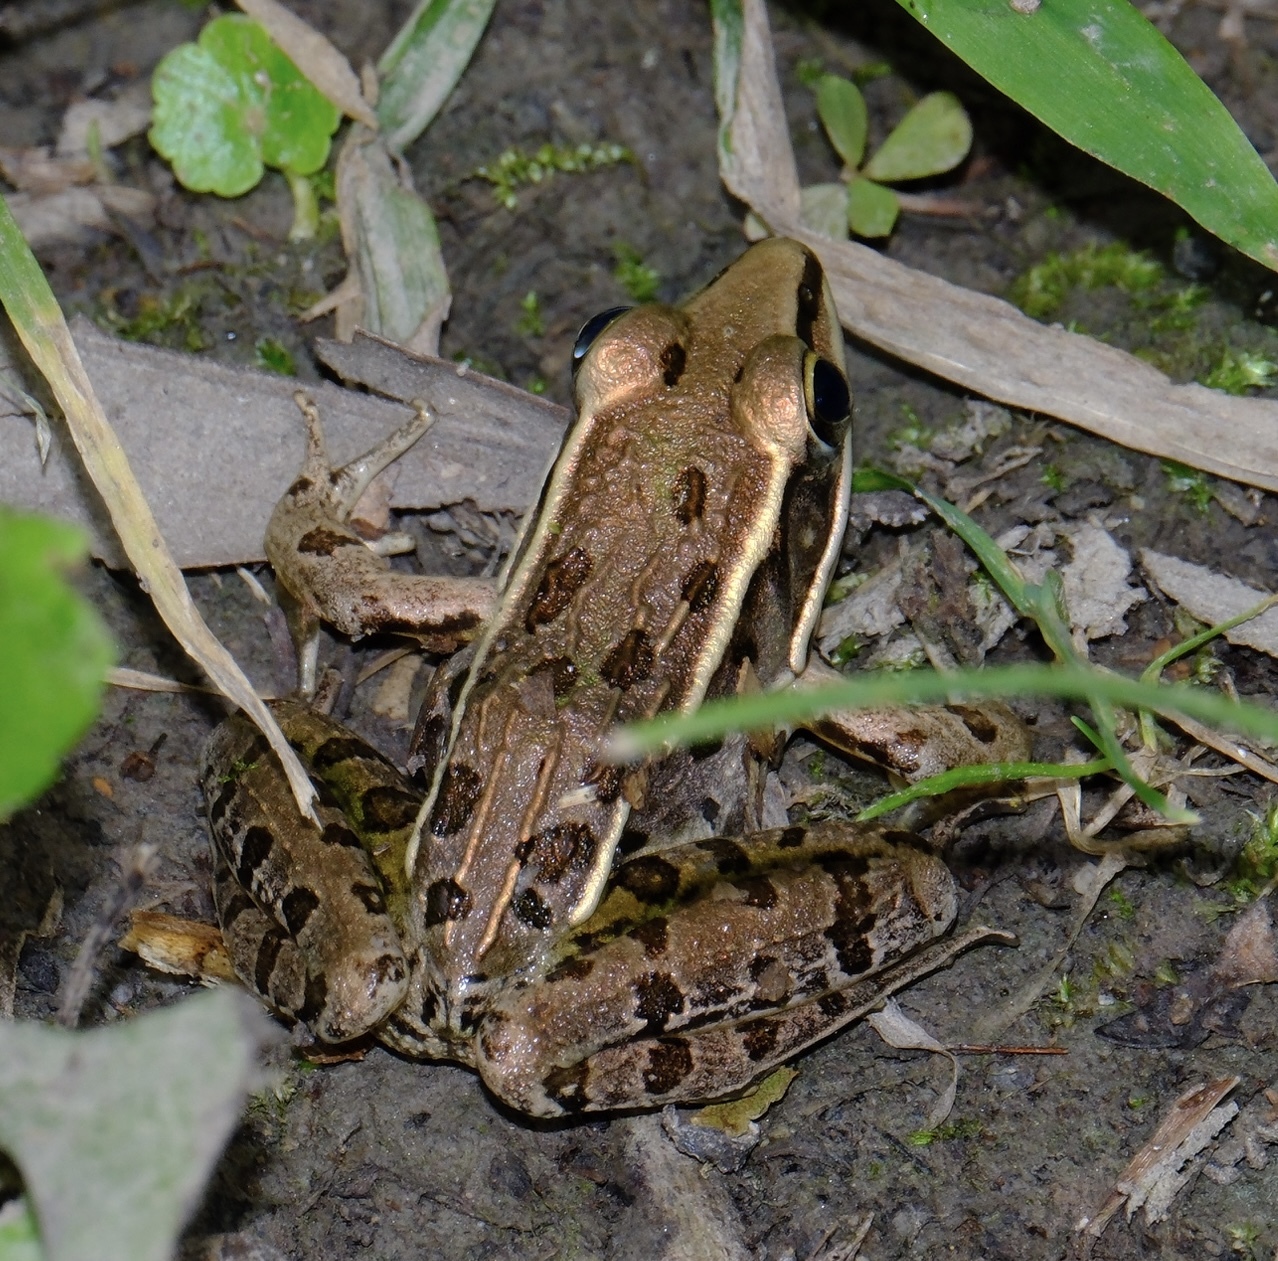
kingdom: Animalia
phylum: Chordata
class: Amphibia
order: Anura
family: Ranidae
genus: Lithobates
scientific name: Lithobates sphenocephalus
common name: Southern leopard frog
